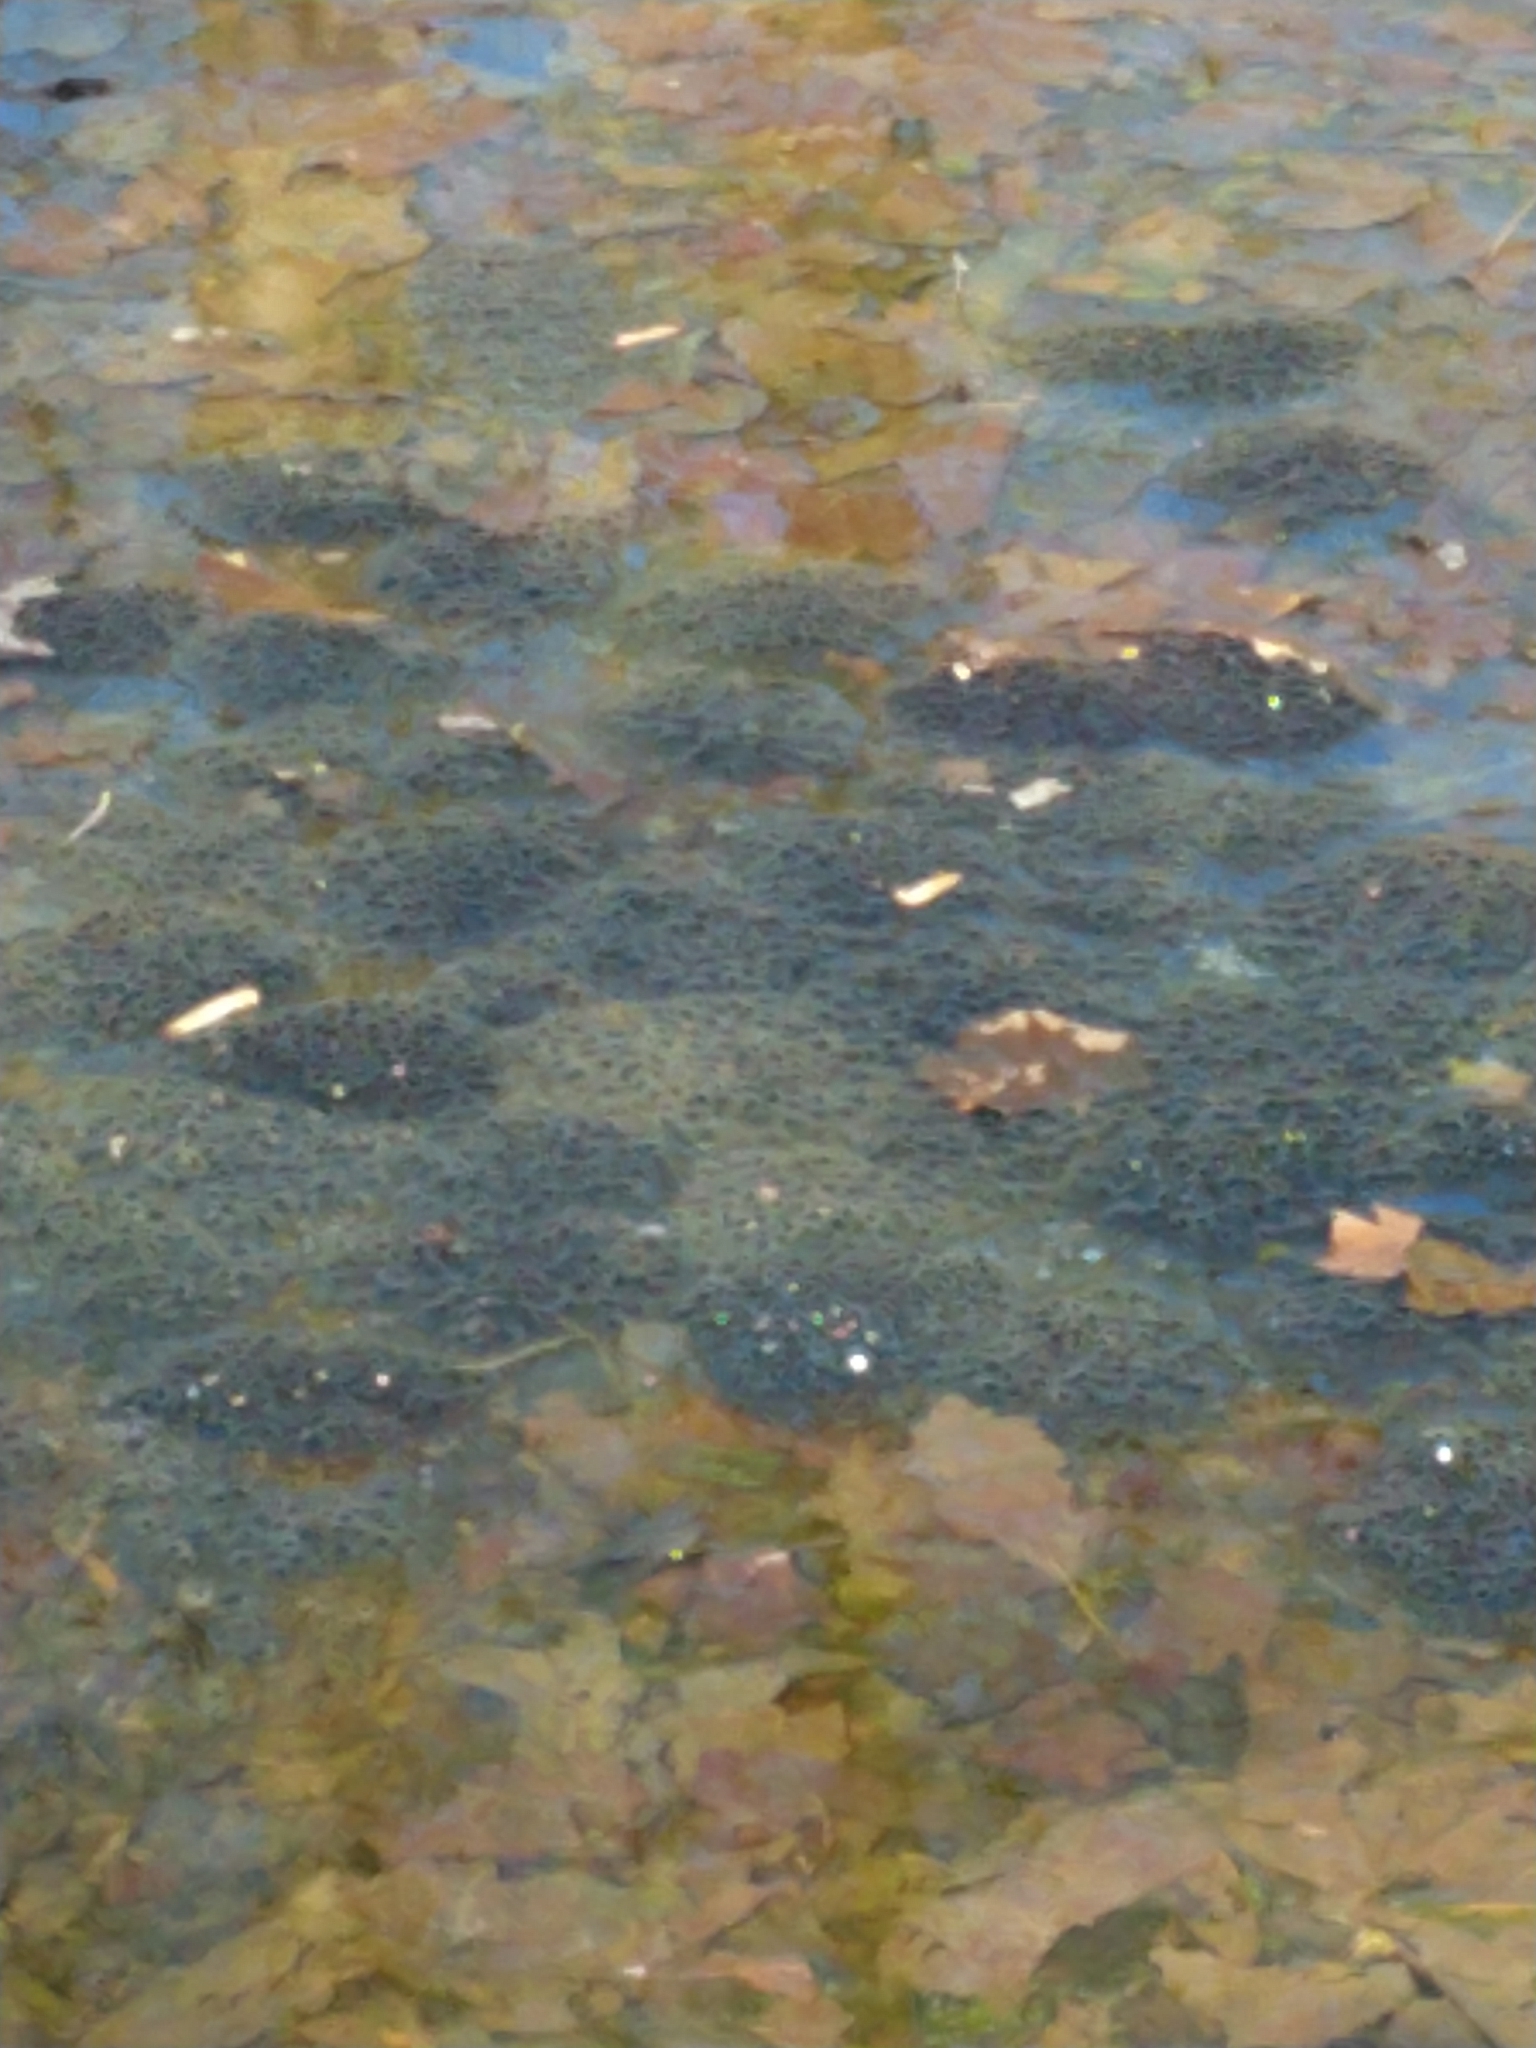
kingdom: Animalia
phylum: Chordata
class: Amphibia
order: Anura
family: Ranidae
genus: Lithobates
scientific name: Lithobates sylvaticus
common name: Wood frog
